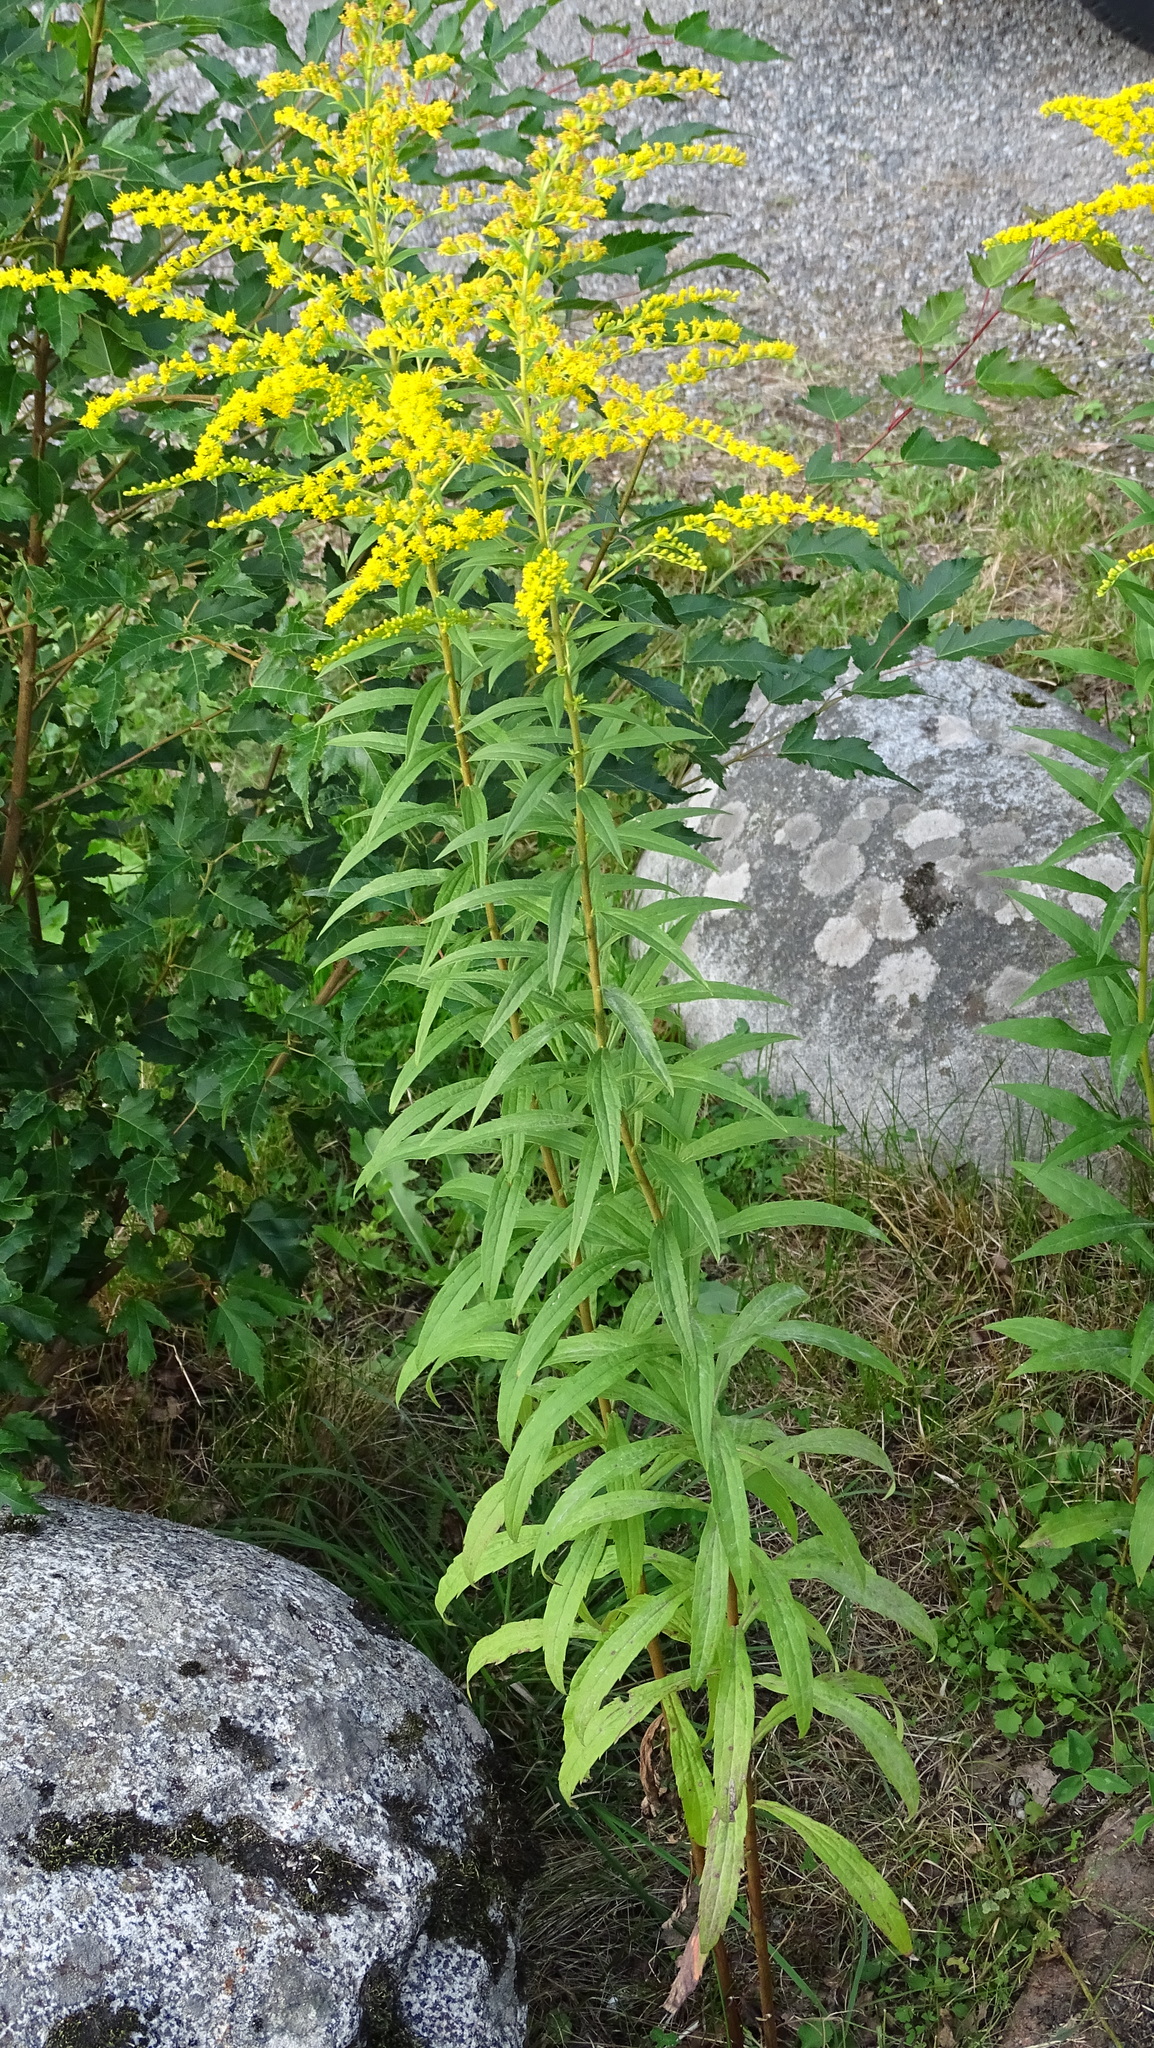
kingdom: Plantae
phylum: Tracheophyta
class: Magnoliopsida
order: Asterales
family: Asteraceae
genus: Solidago
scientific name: Solidago canadensis
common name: Canada goldenrod
